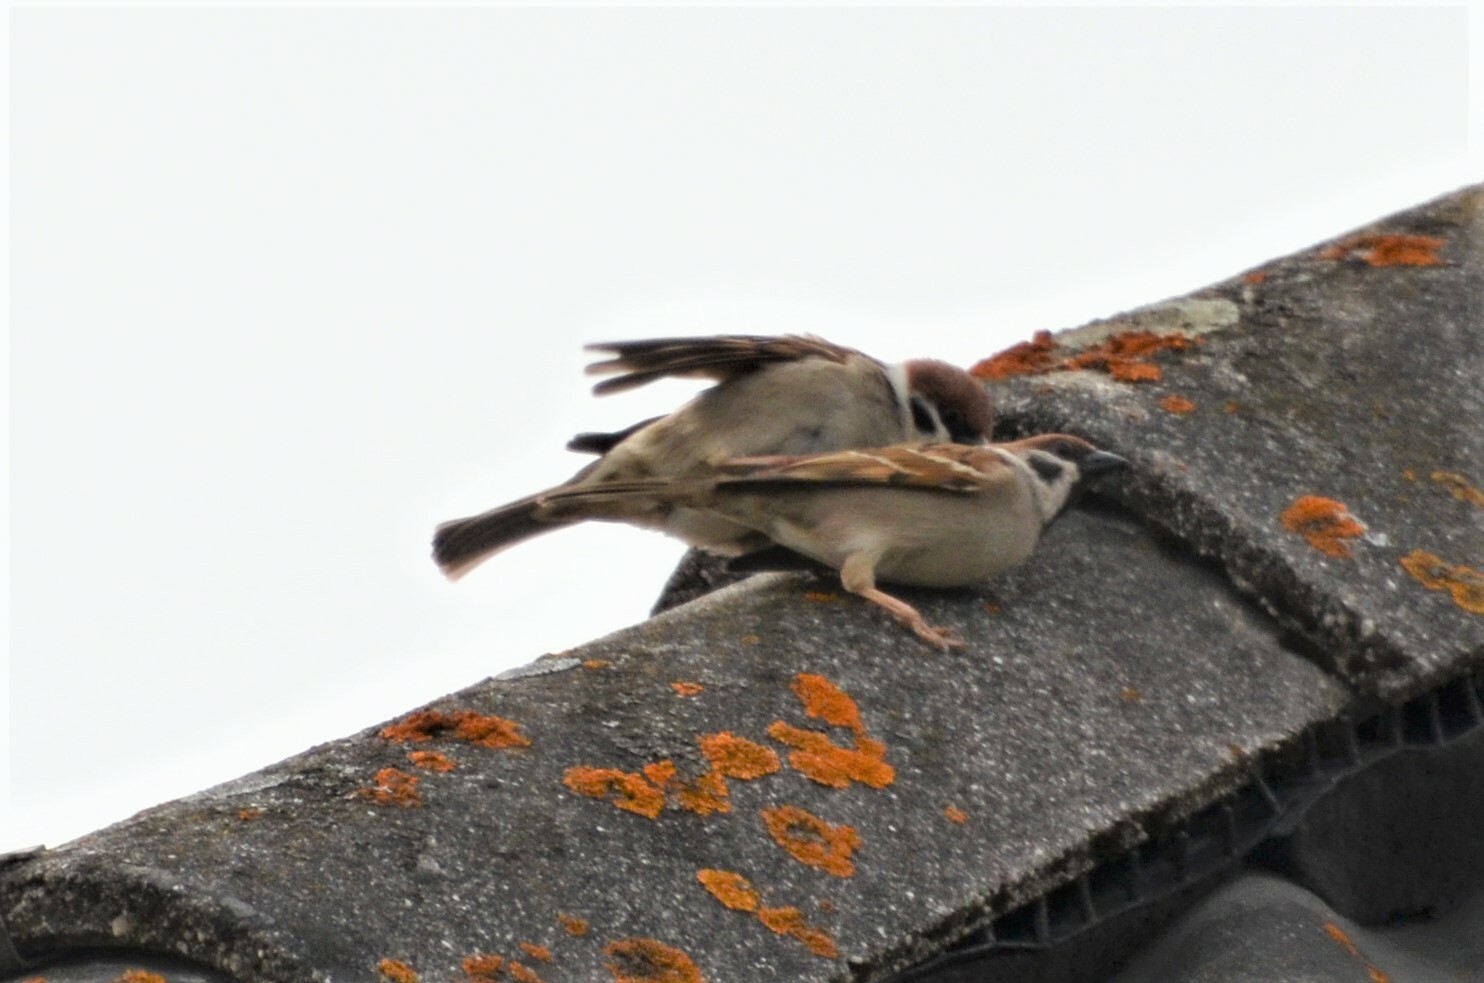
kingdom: Animalia
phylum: Chordata
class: Aves
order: Passeriformes
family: Passeridae
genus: Passer
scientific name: Passer montanus
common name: Eurasian tree sparrow
